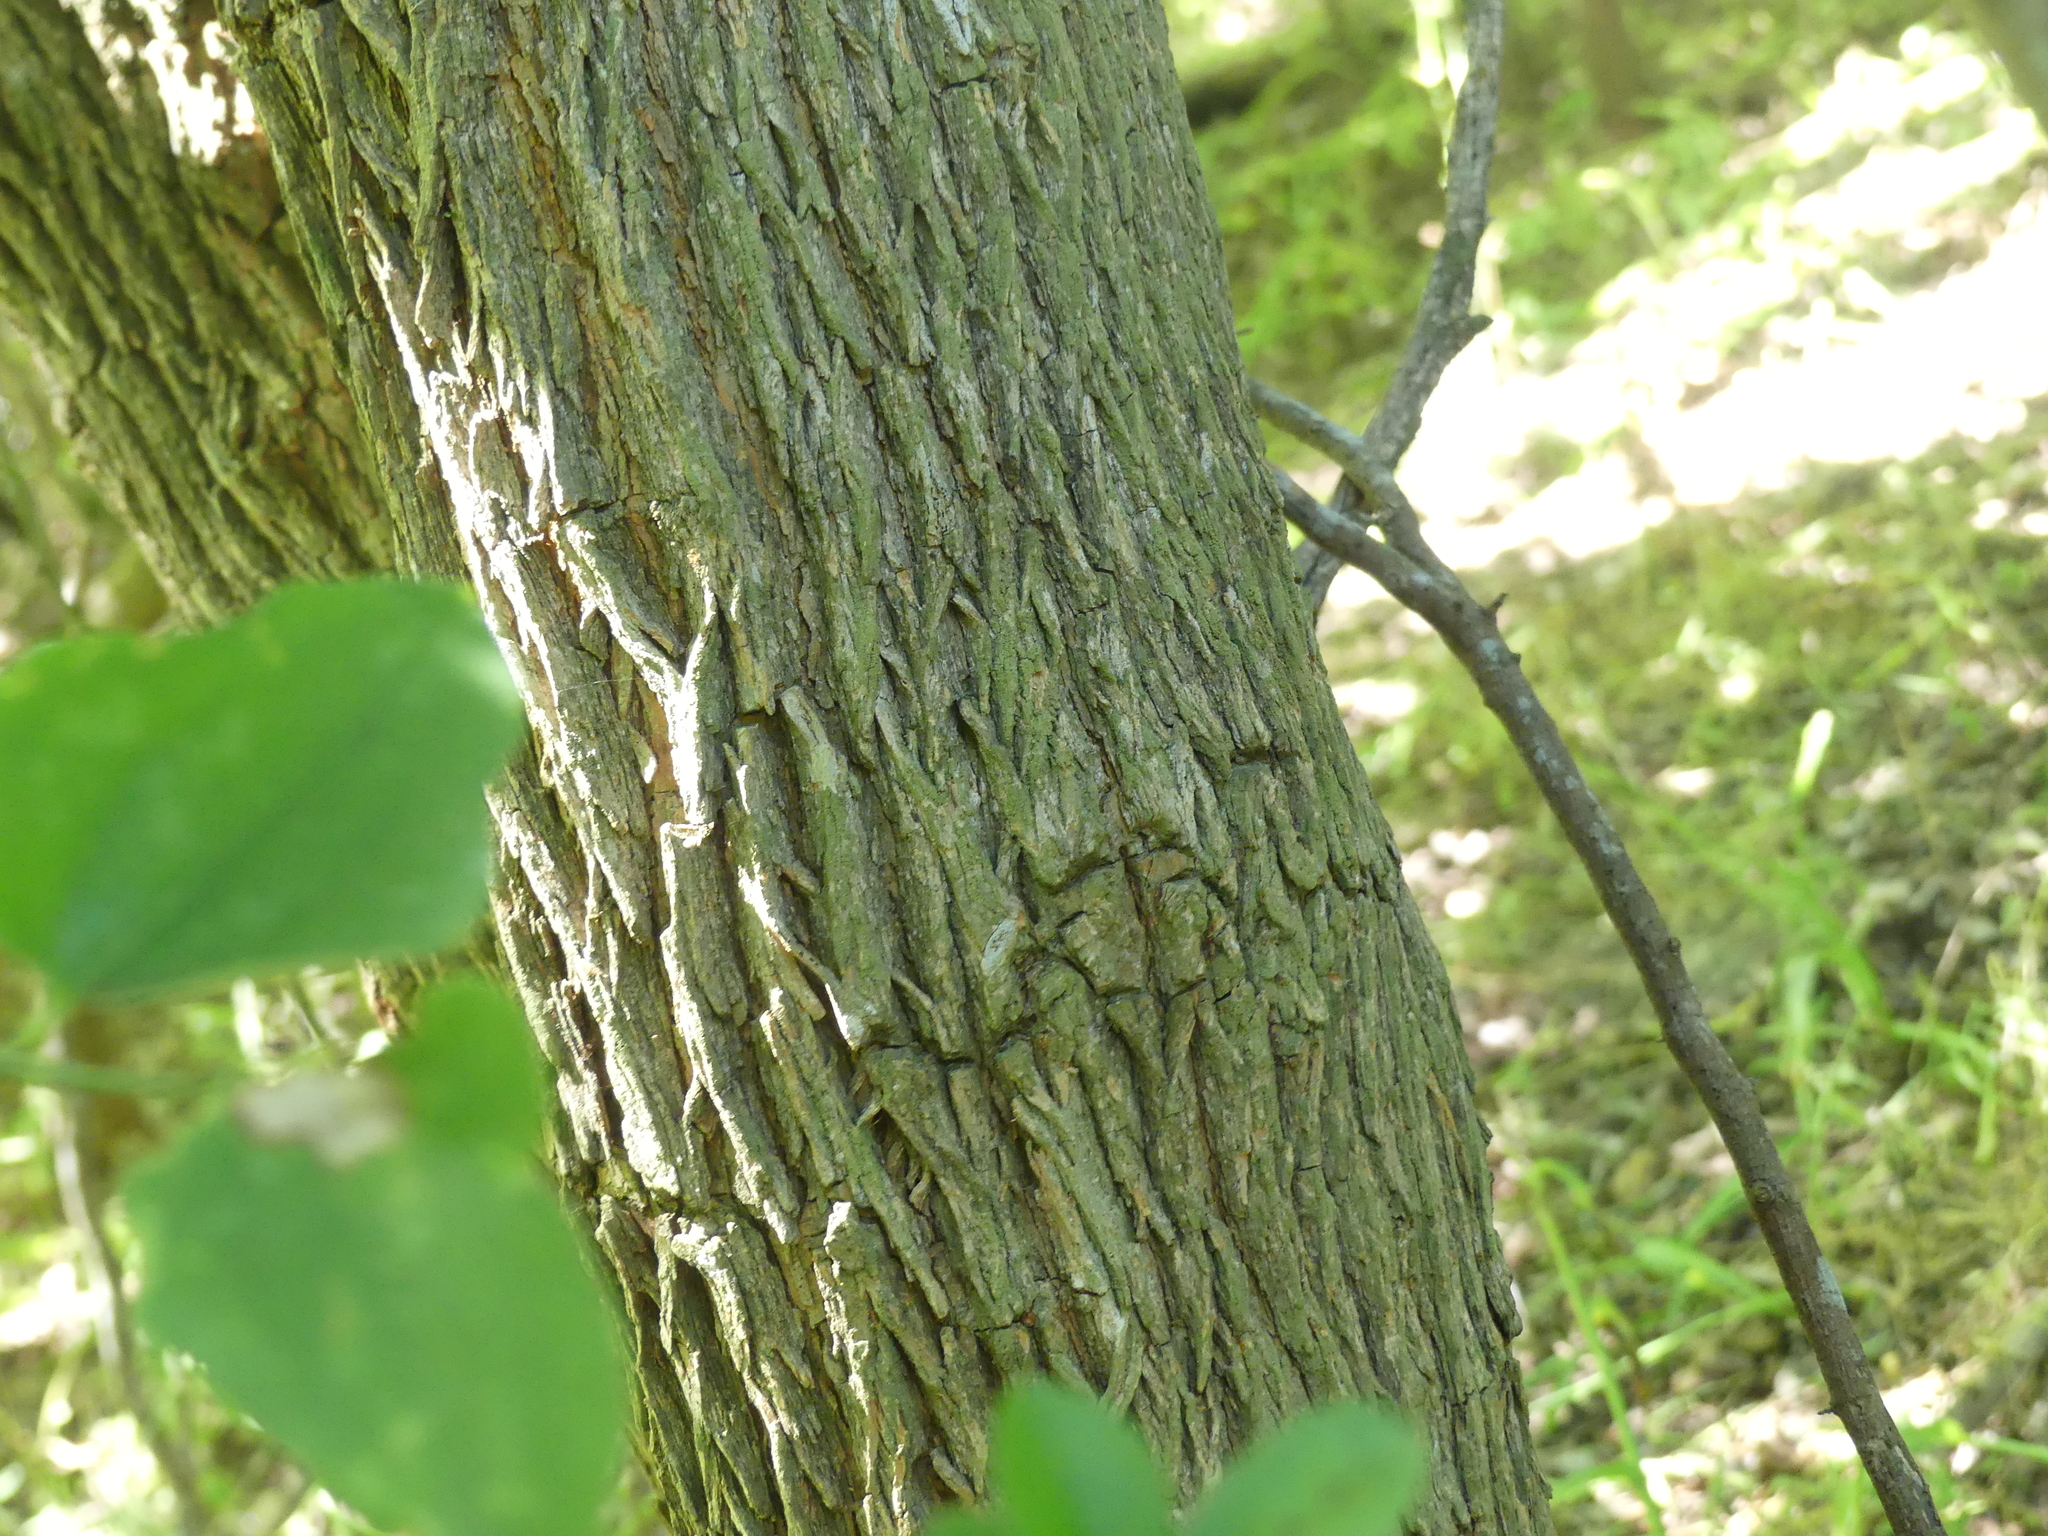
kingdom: Plantae
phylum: Tracheophyta
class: Magnoliopsida
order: Rosales
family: Moraceae
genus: Maclura
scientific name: Maclura pomifera
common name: Osage-orange
